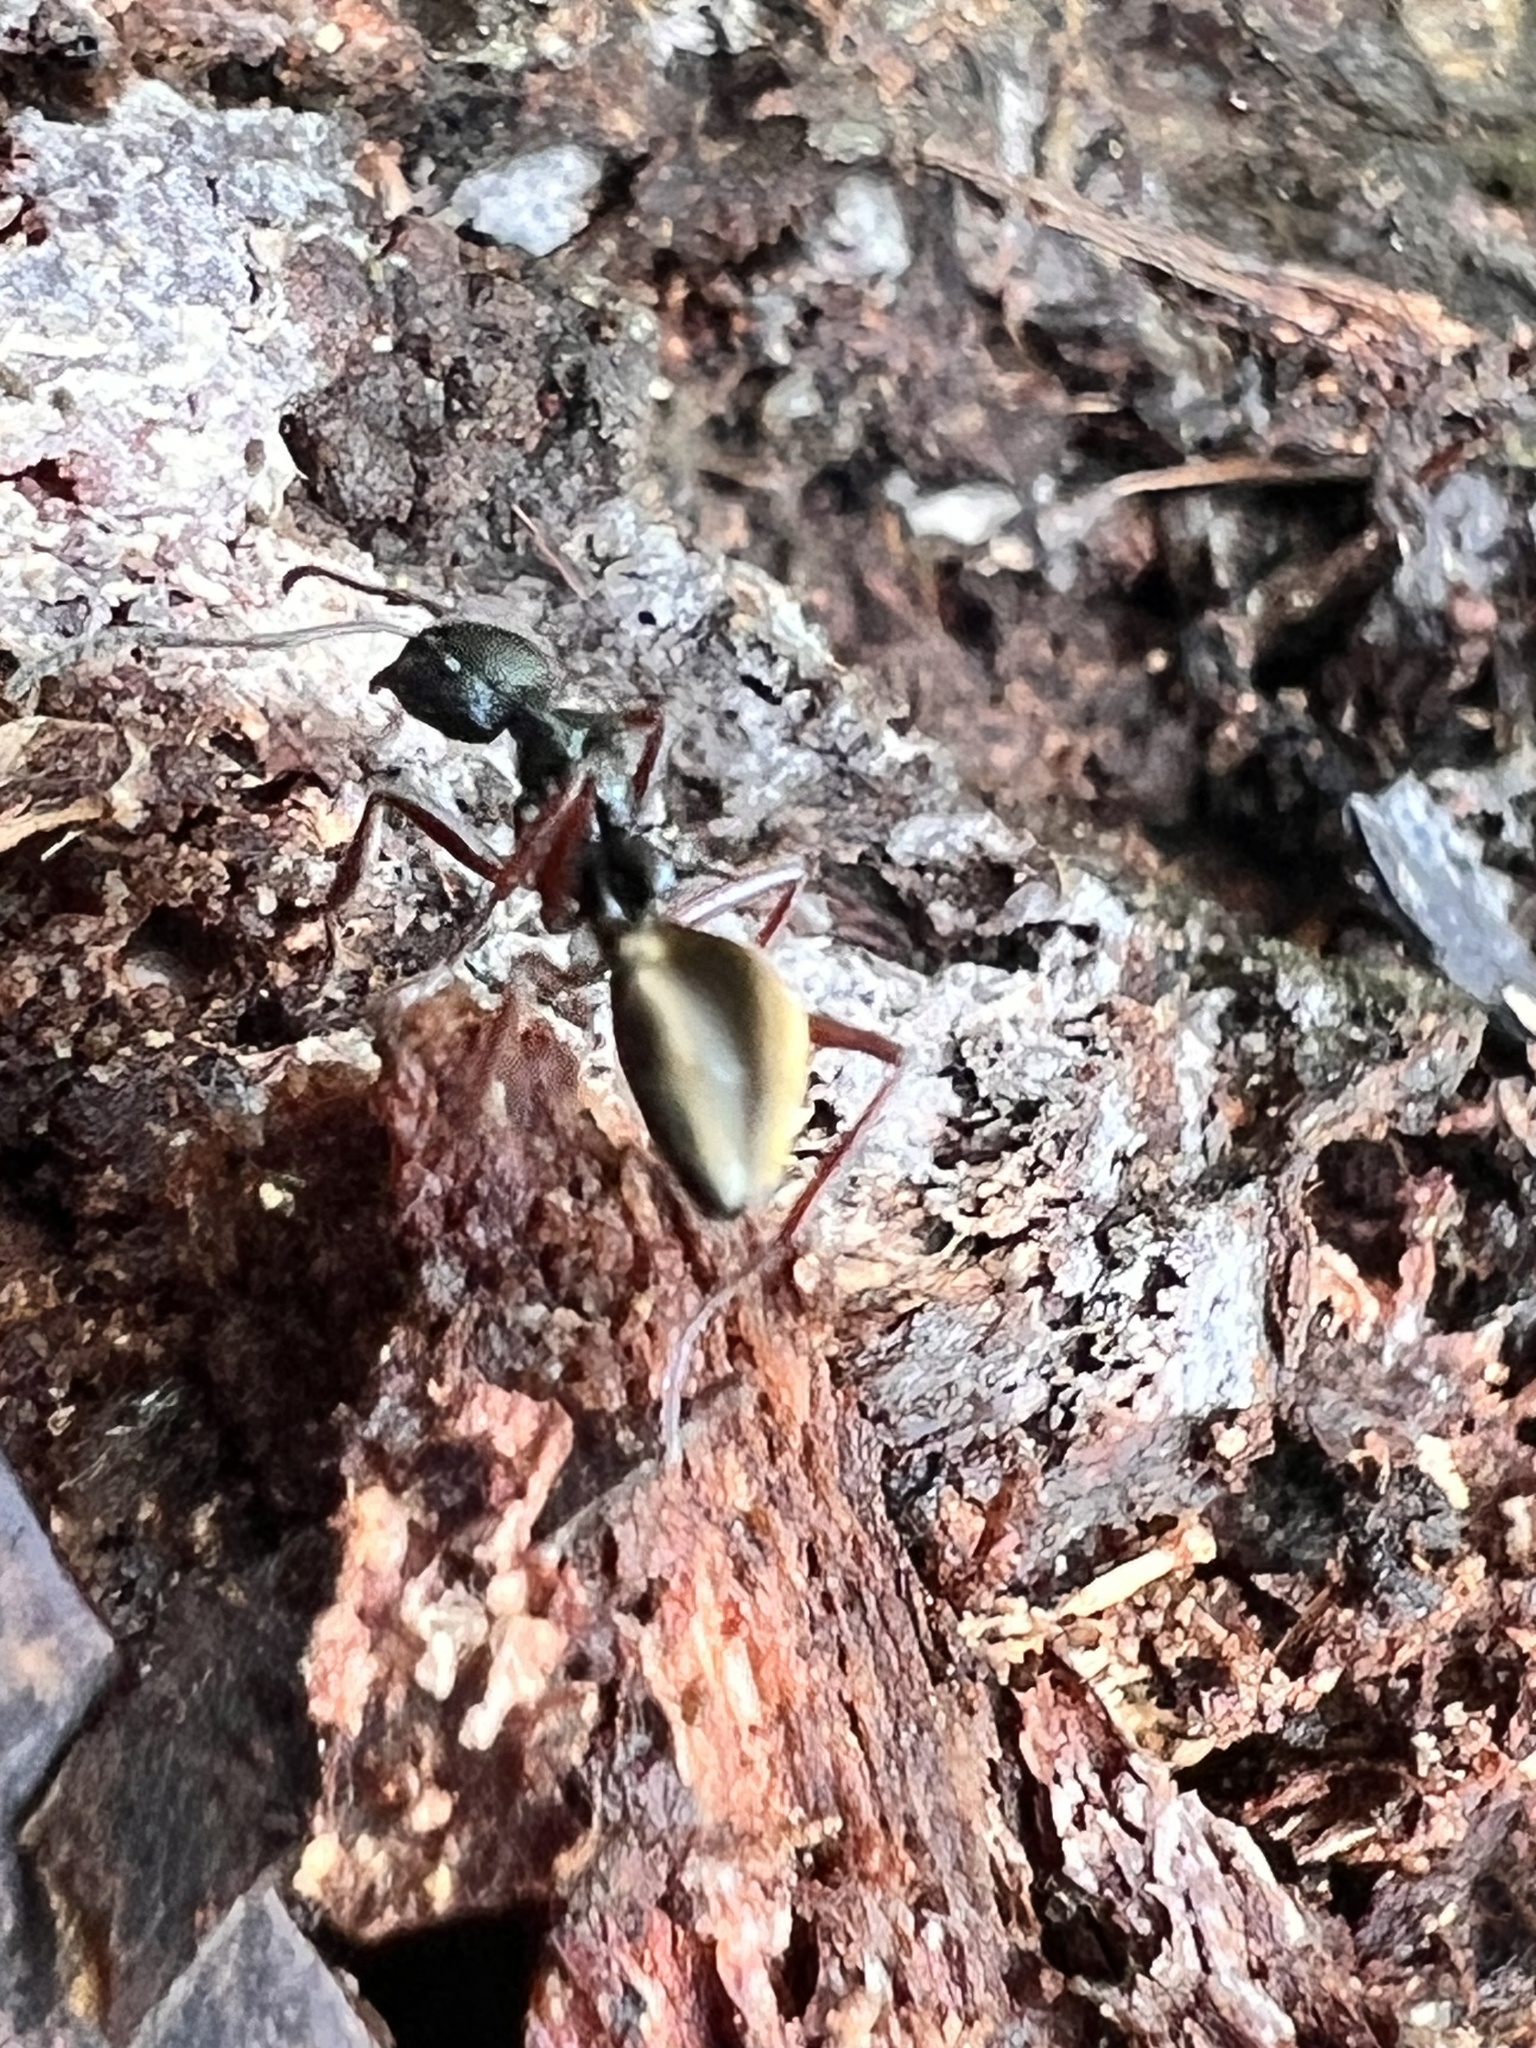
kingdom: Animalia
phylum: Arthropoda
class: Insecta
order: Hymenoptera
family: Formicidae
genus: Dolichoderus
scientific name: Dolichoderus doriae
